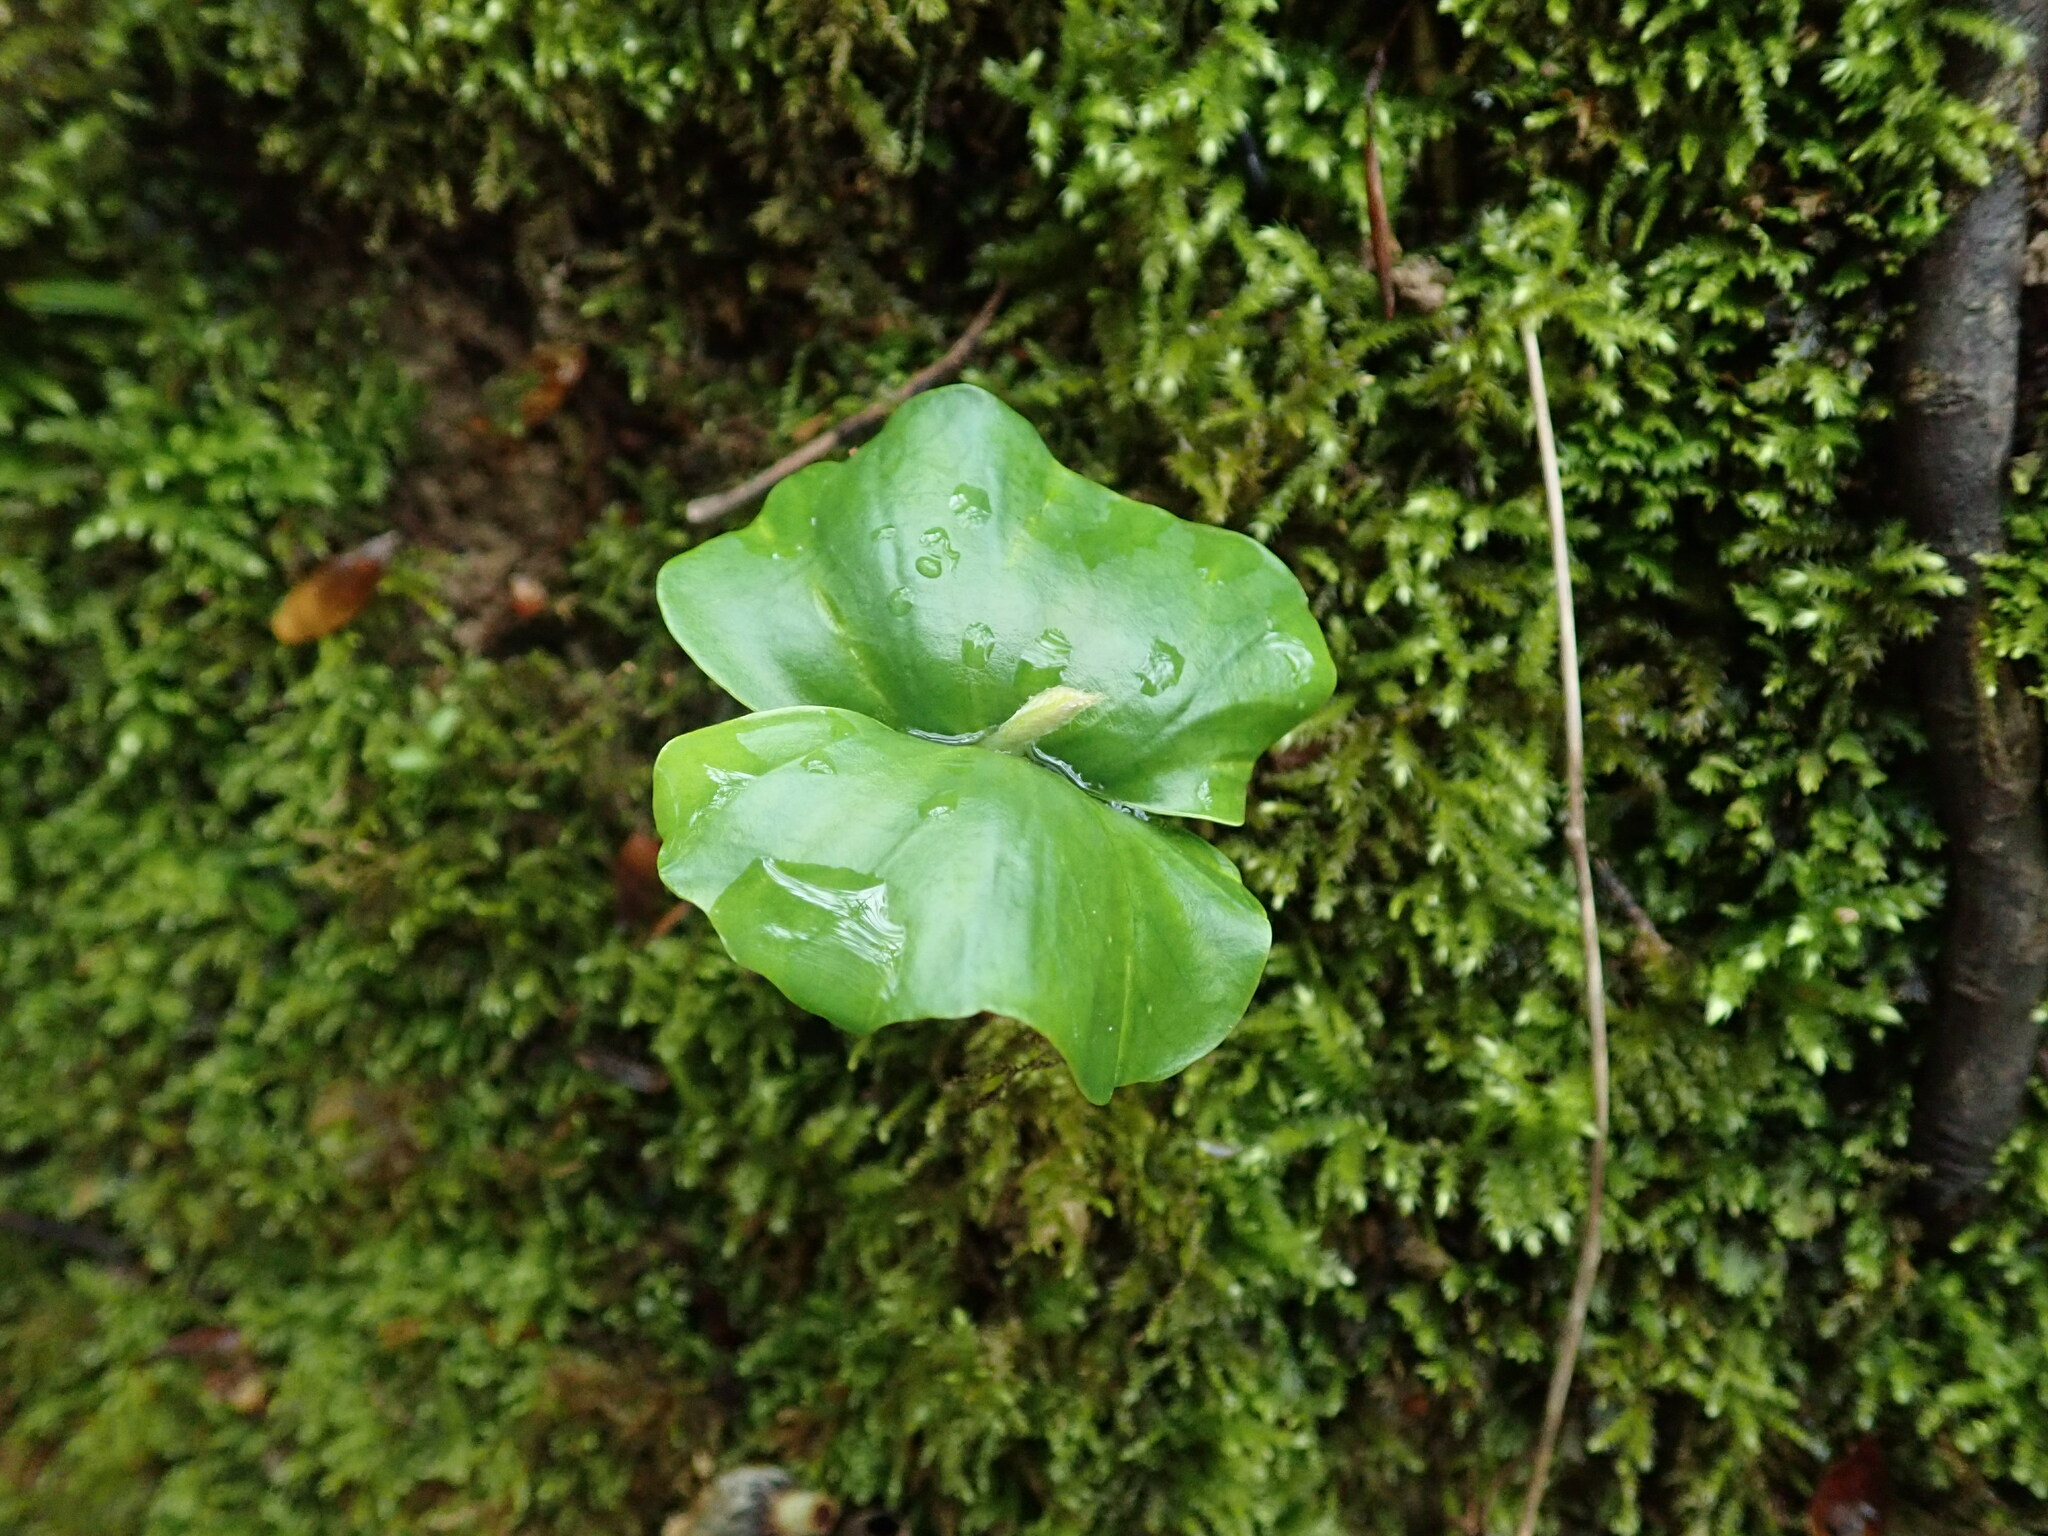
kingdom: Plantae
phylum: Tracheophyta
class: Magnoliopsida
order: Fagales
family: Fagaceae
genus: Fagus
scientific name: Fagus sylvatica
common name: Beech
